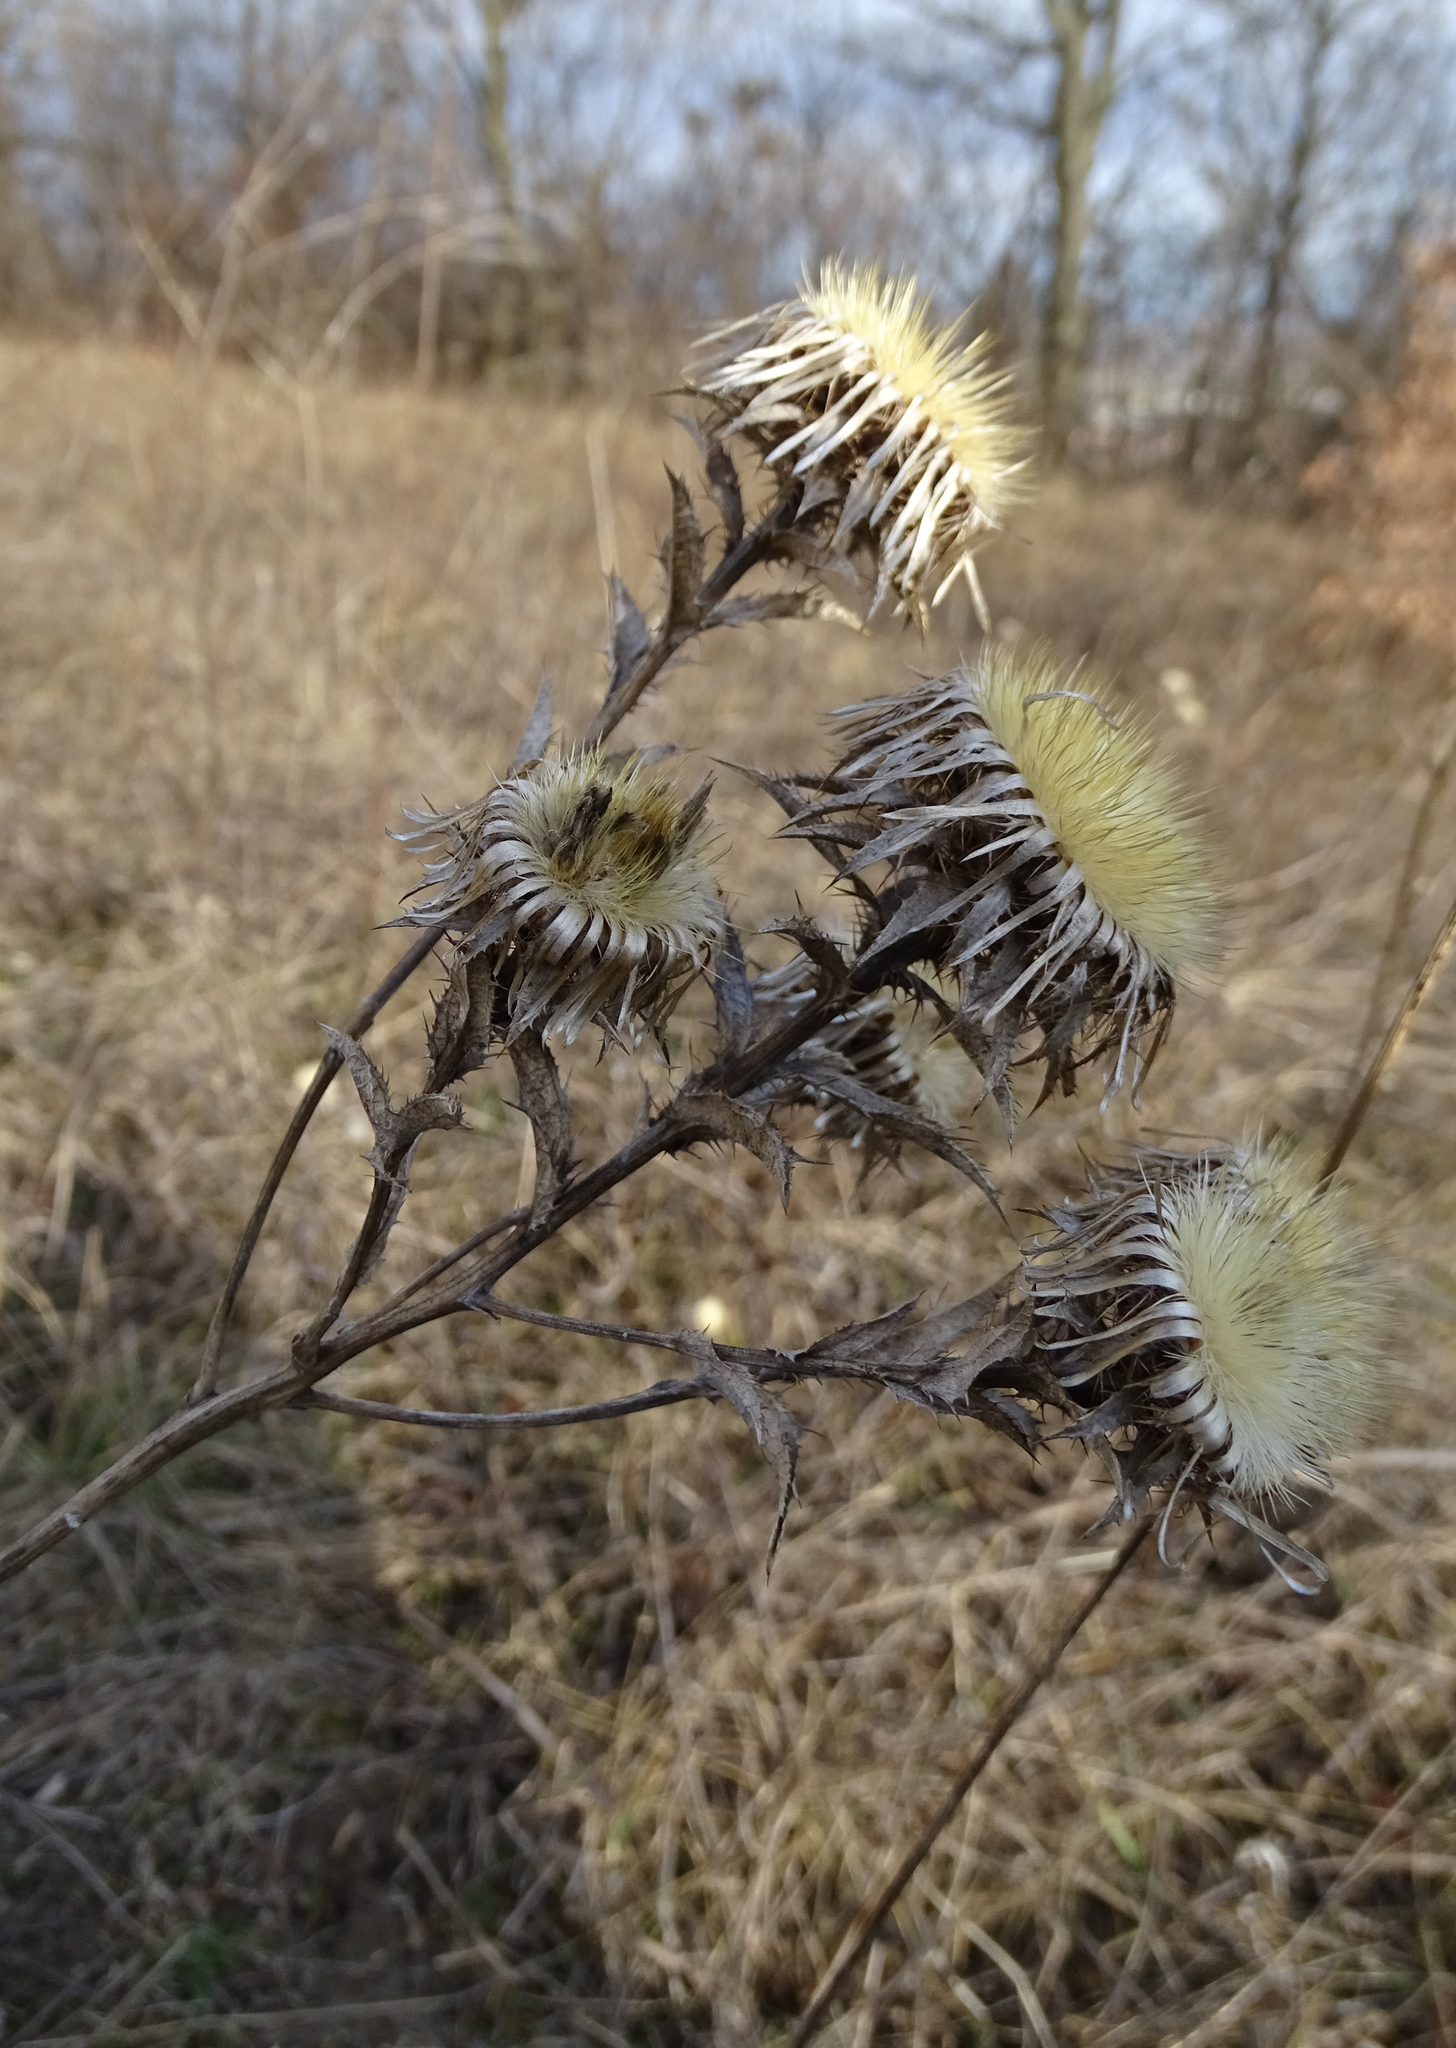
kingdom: Plantae
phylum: Tracheophyta
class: Magnoliopsida
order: Asterales
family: Asteraceae
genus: Carlina
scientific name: Carlina vulgaris
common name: Carline thistle
